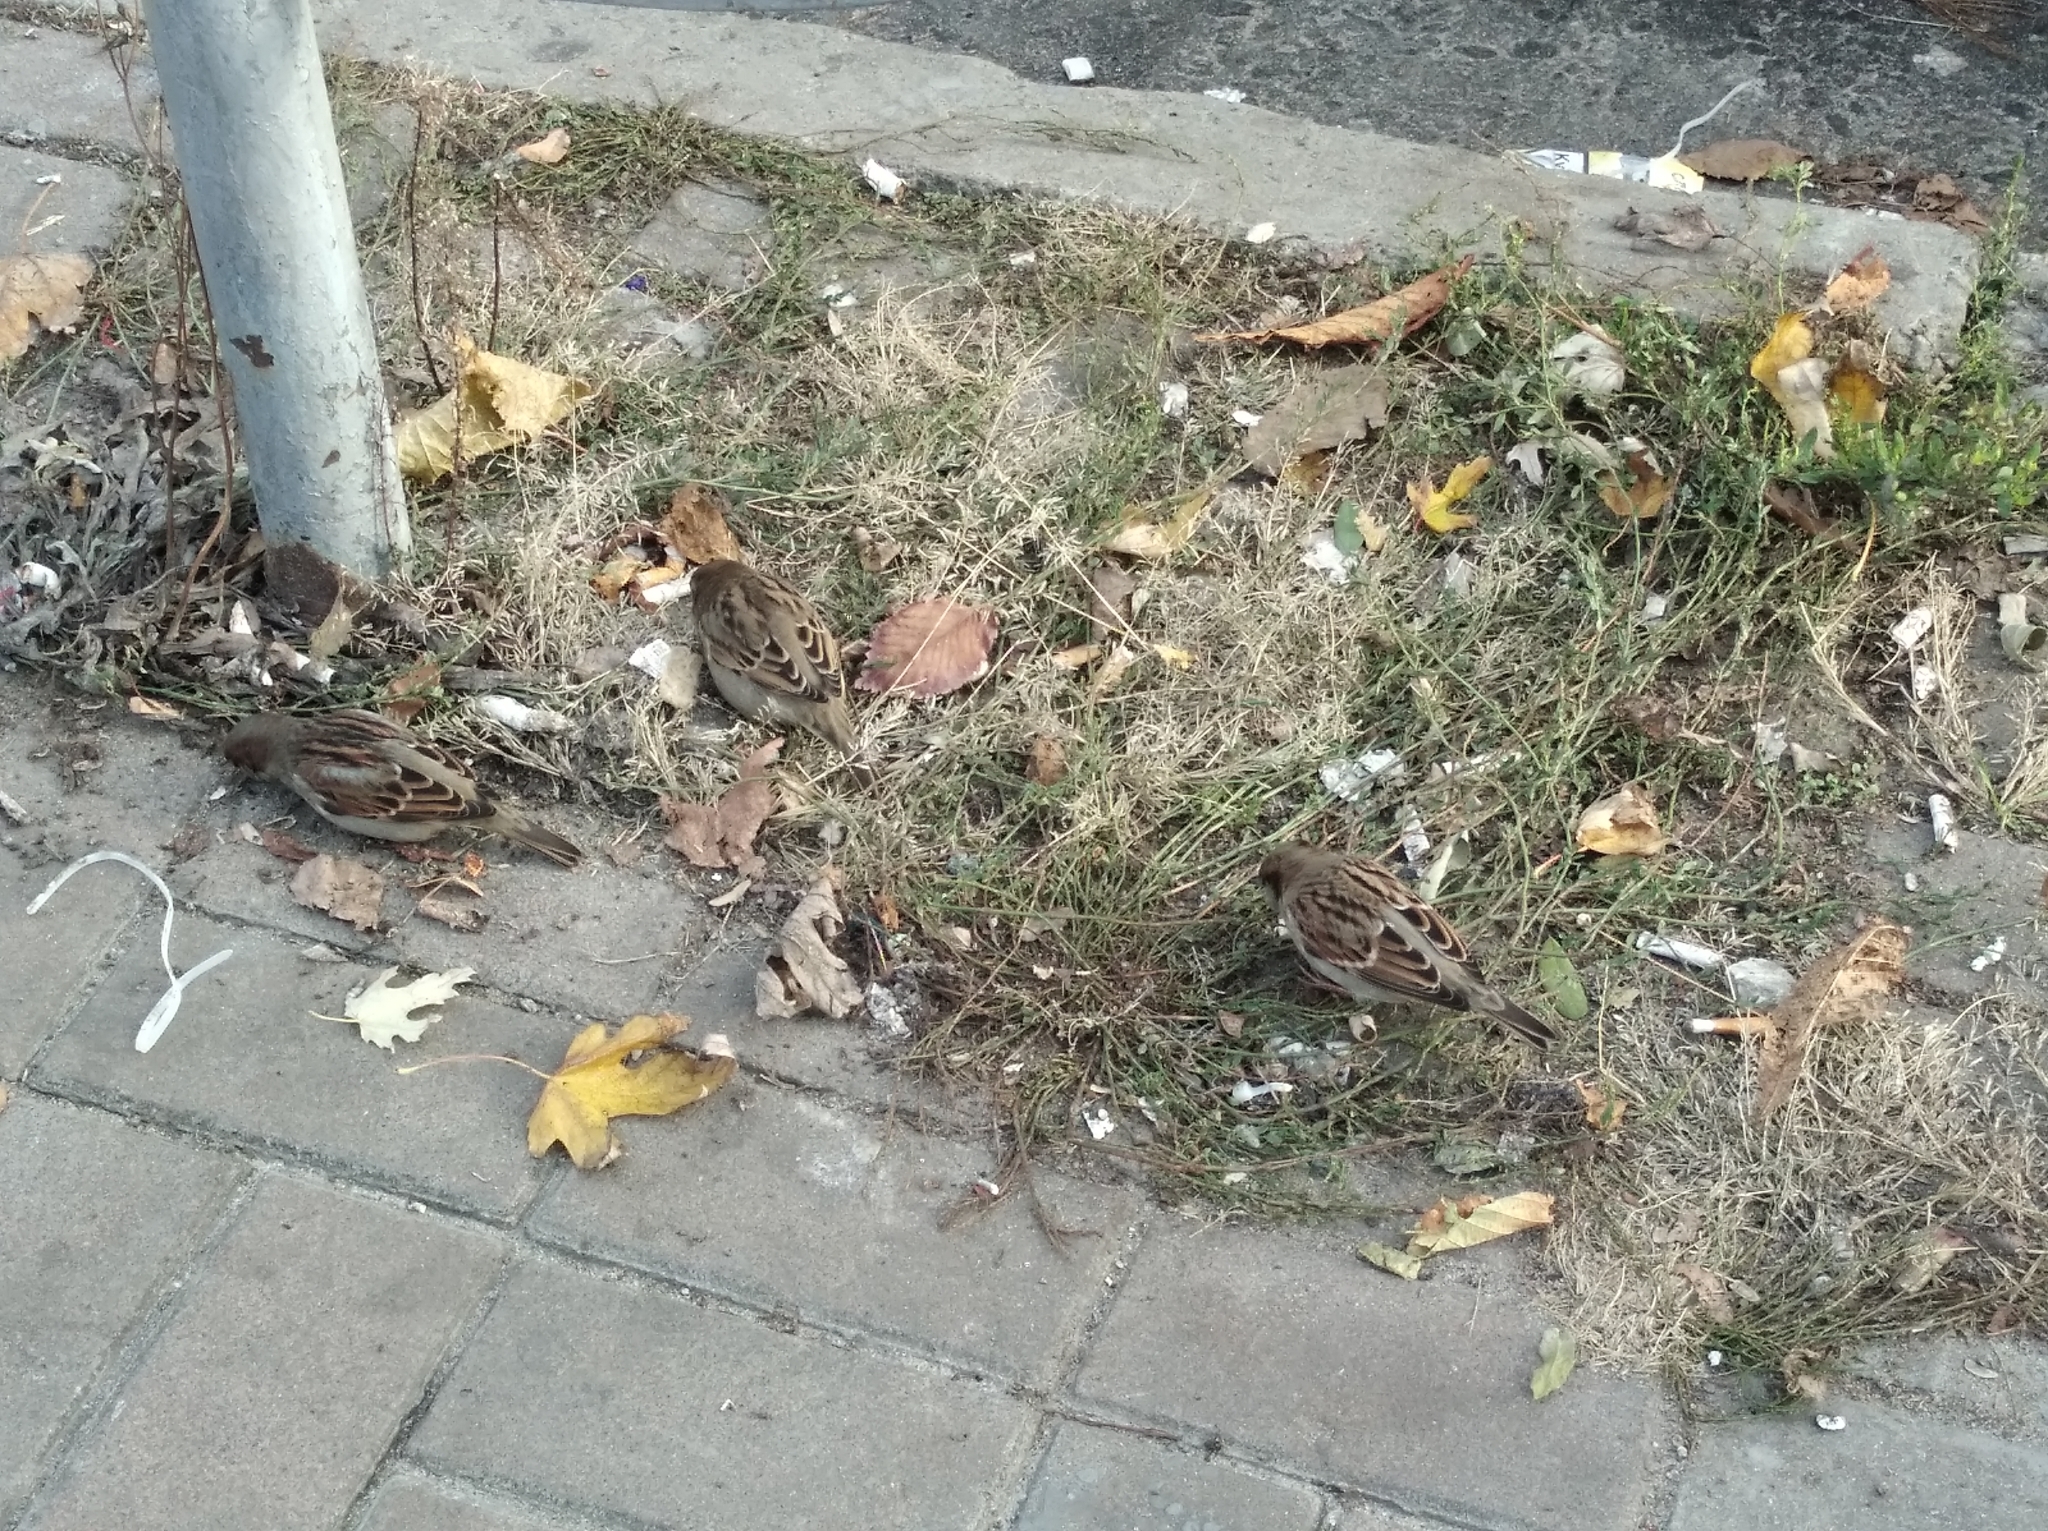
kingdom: Animalia
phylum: Chordata
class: Aves
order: Passeriformes
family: Passeridae
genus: Passer
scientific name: Passer domesticus
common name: House sparrow
